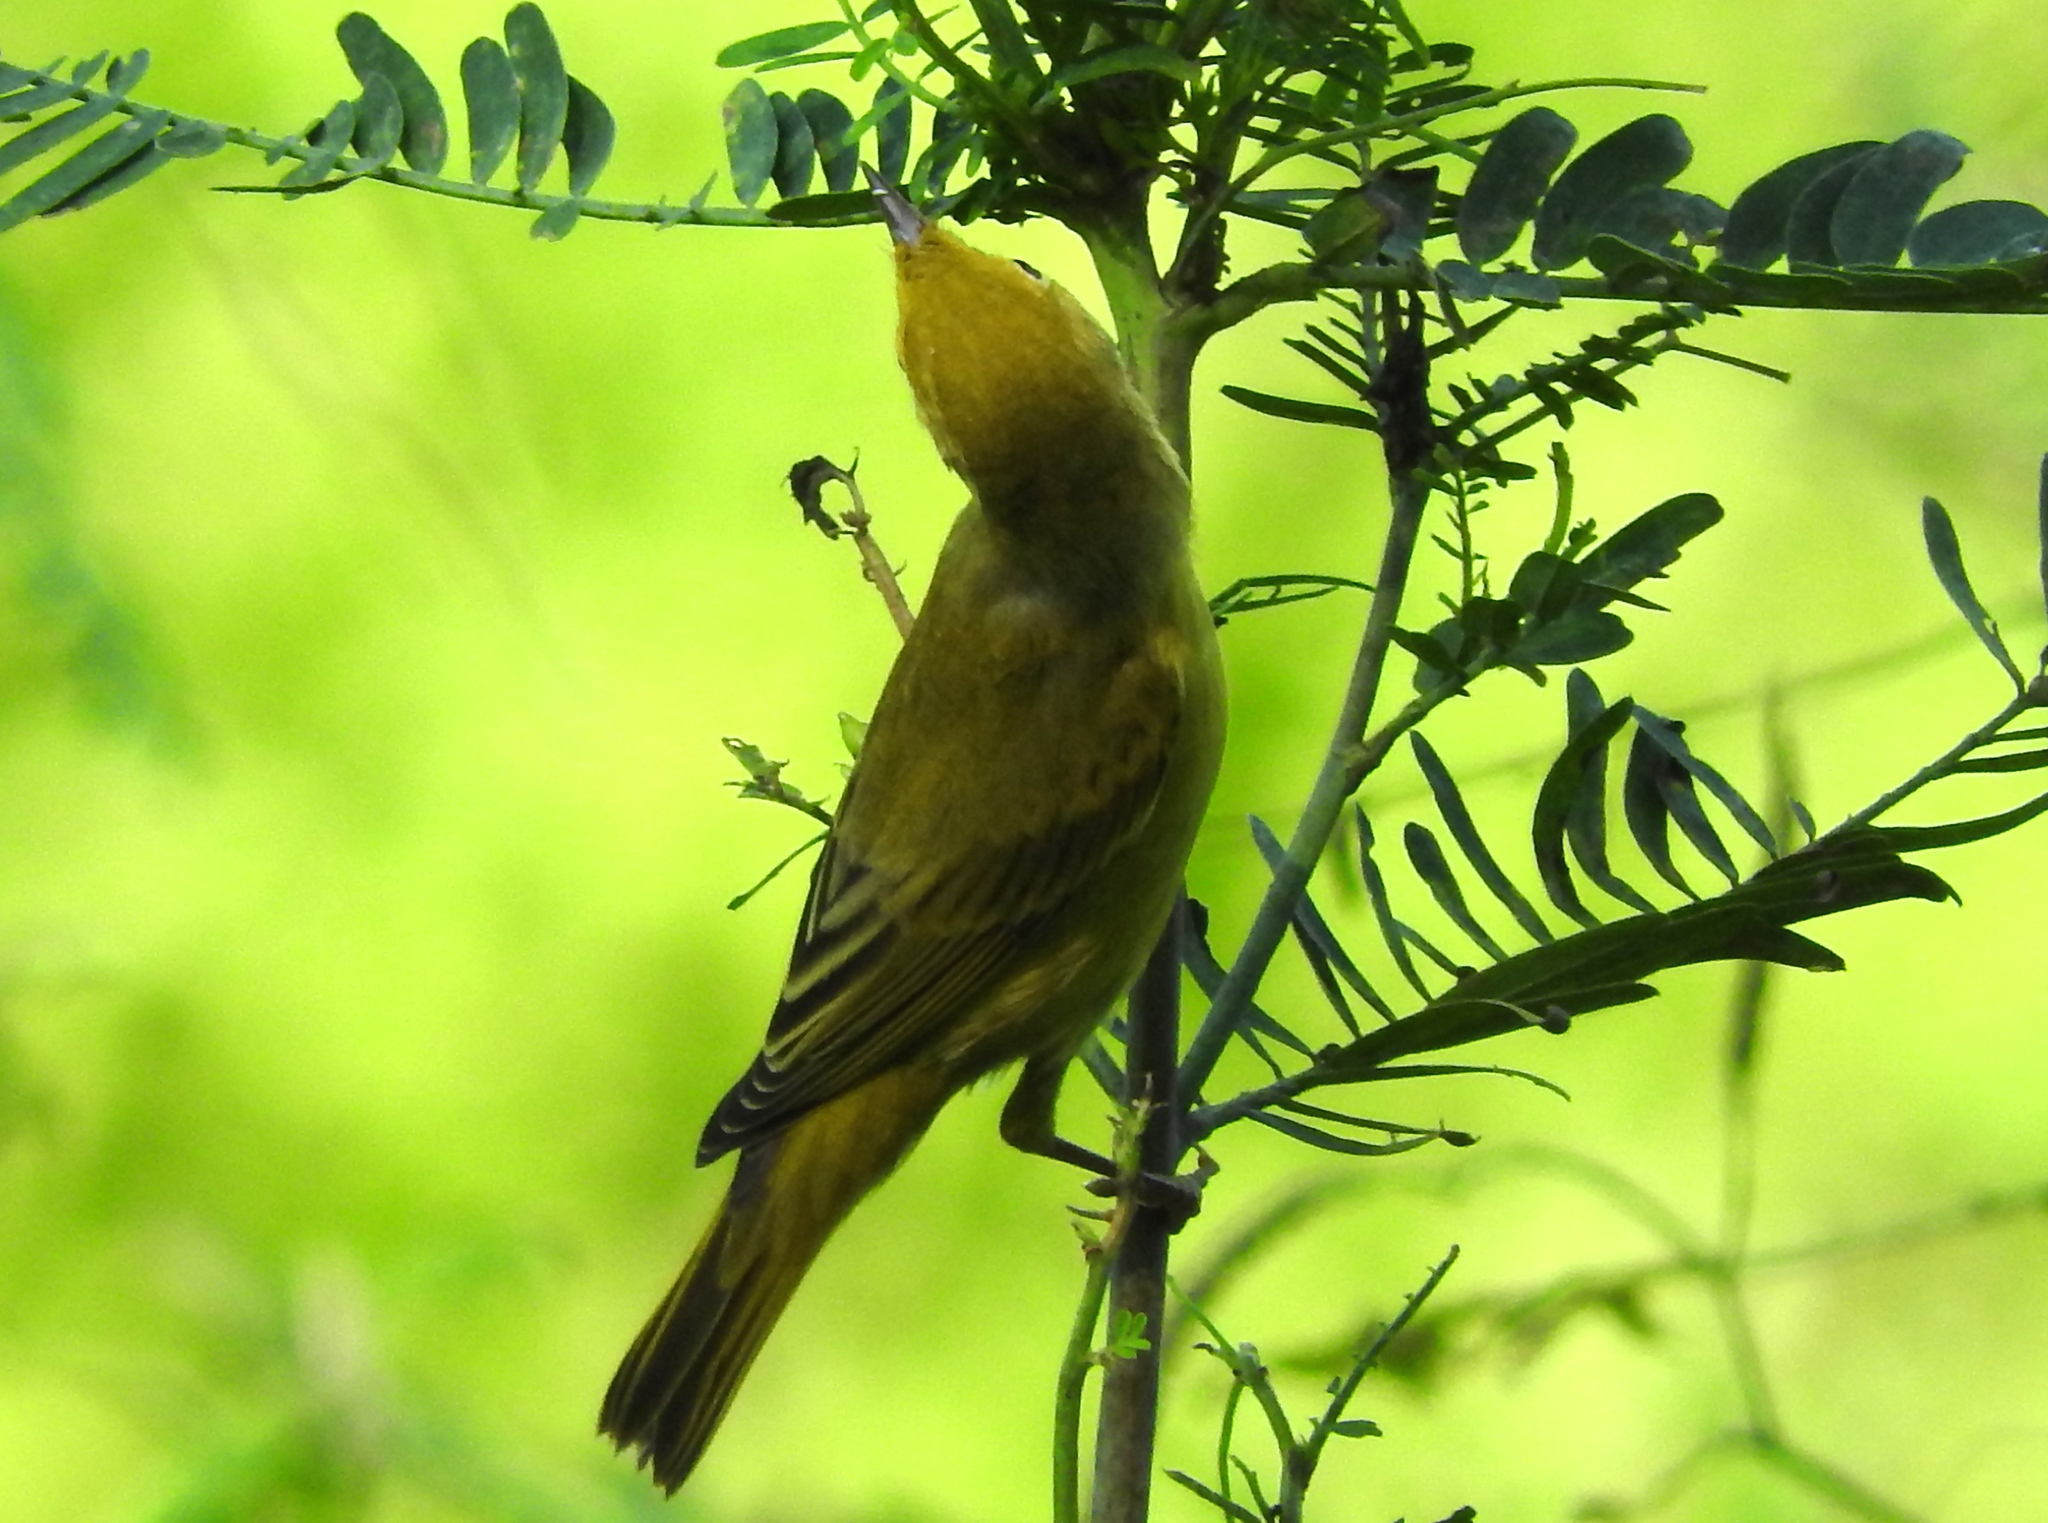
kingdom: Animalia
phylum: Chordata
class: Aves
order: Passeriformes
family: Parulidae
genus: Setophaga
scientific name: Setophaga petechia
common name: Yellow warbler
